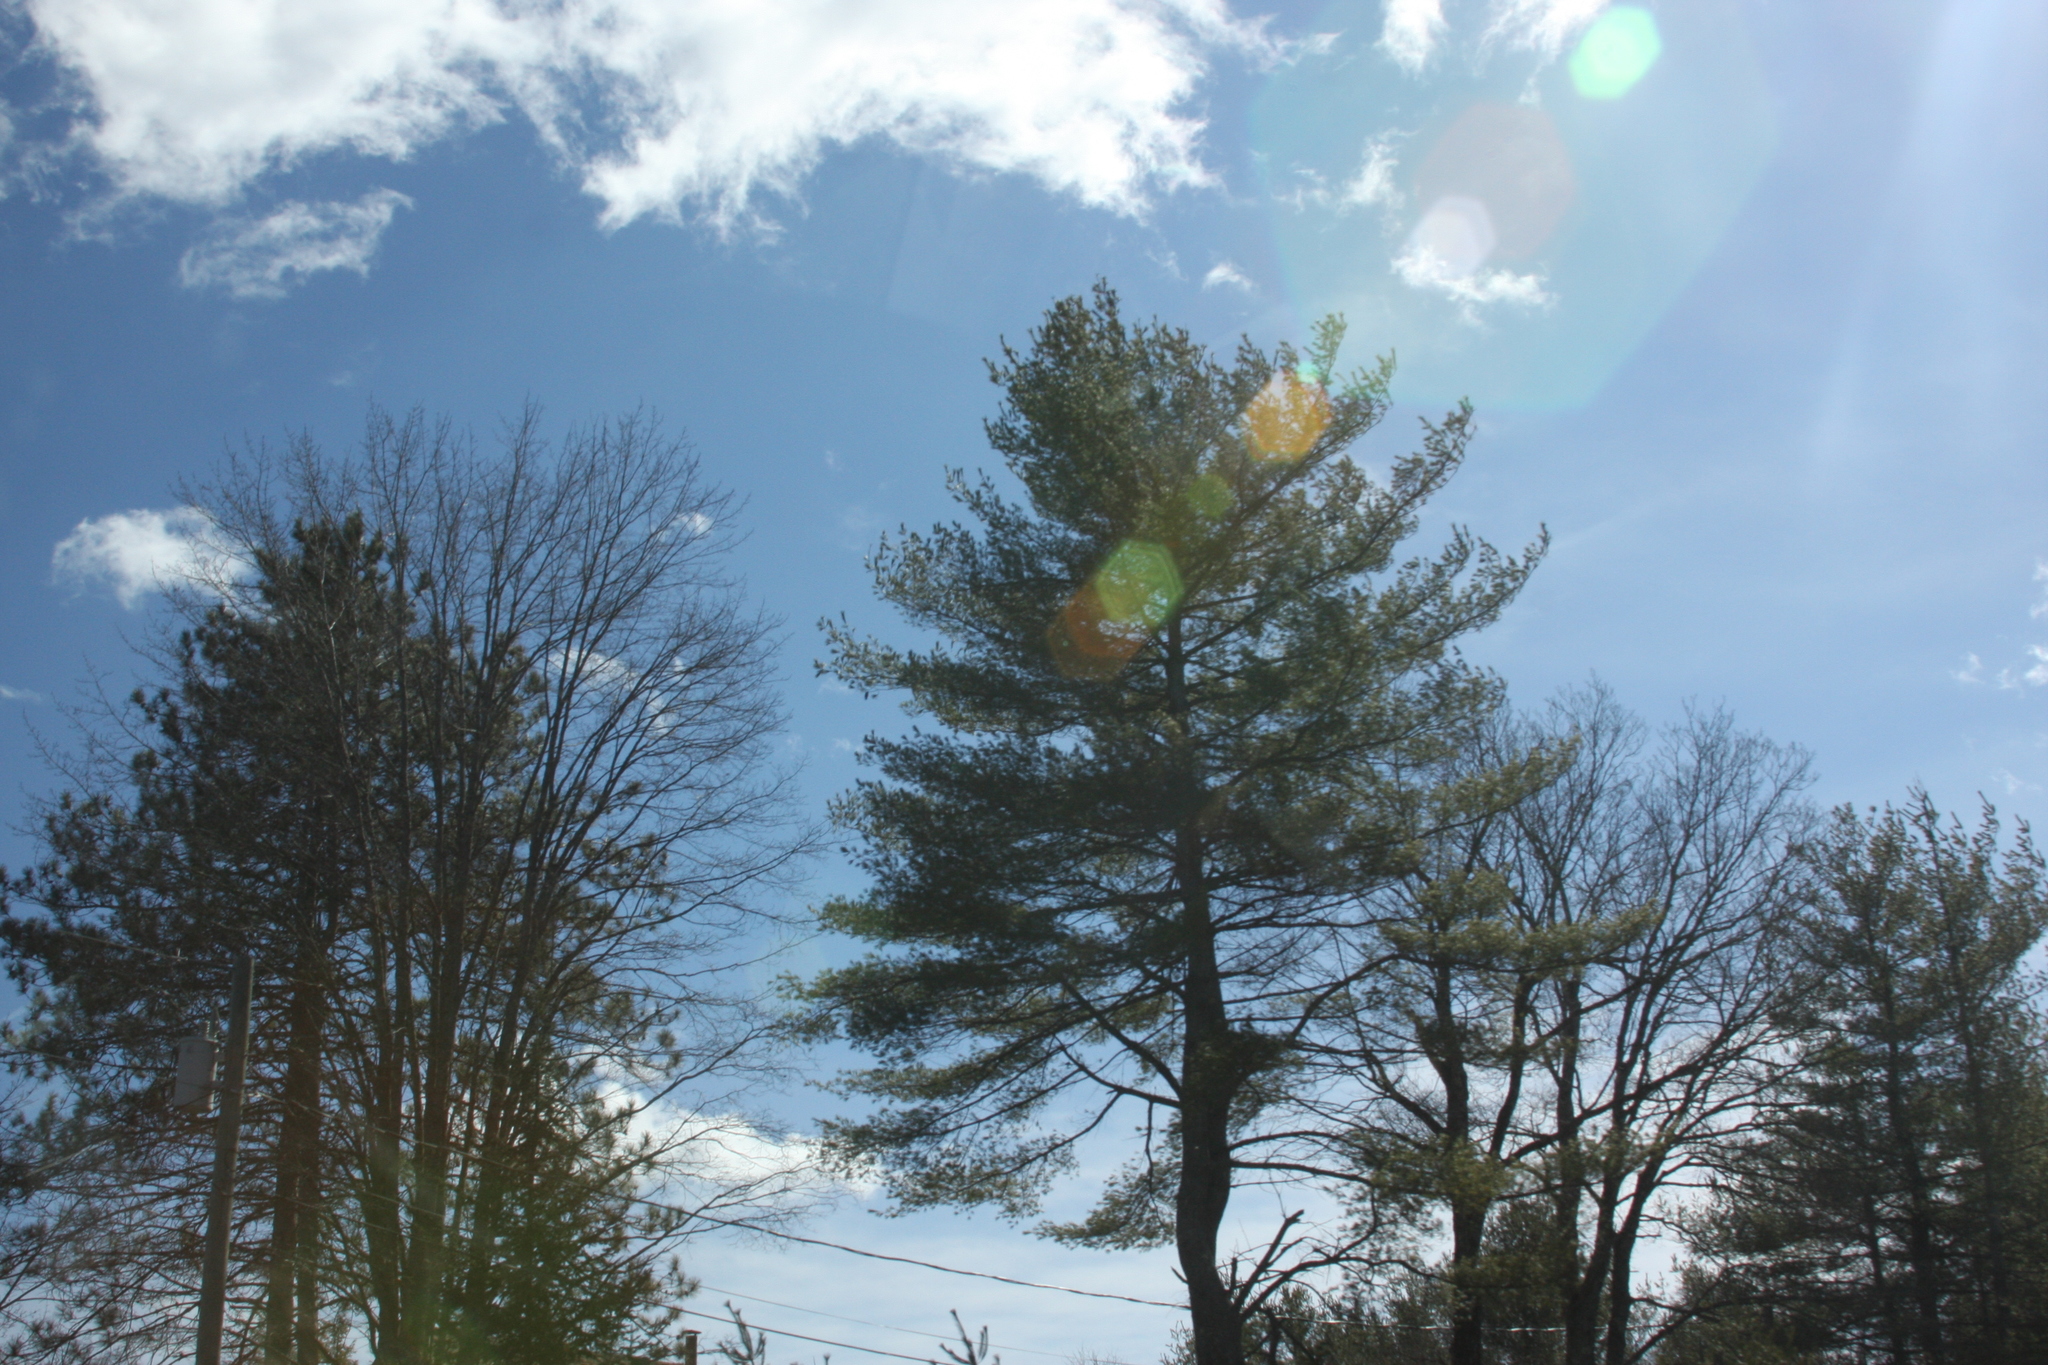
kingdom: Plantae
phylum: Tracheophyta
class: Pinopsida
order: Pinales
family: Pinaceae
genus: Pinus
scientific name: Pinus strobus
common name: Weymouth pine
